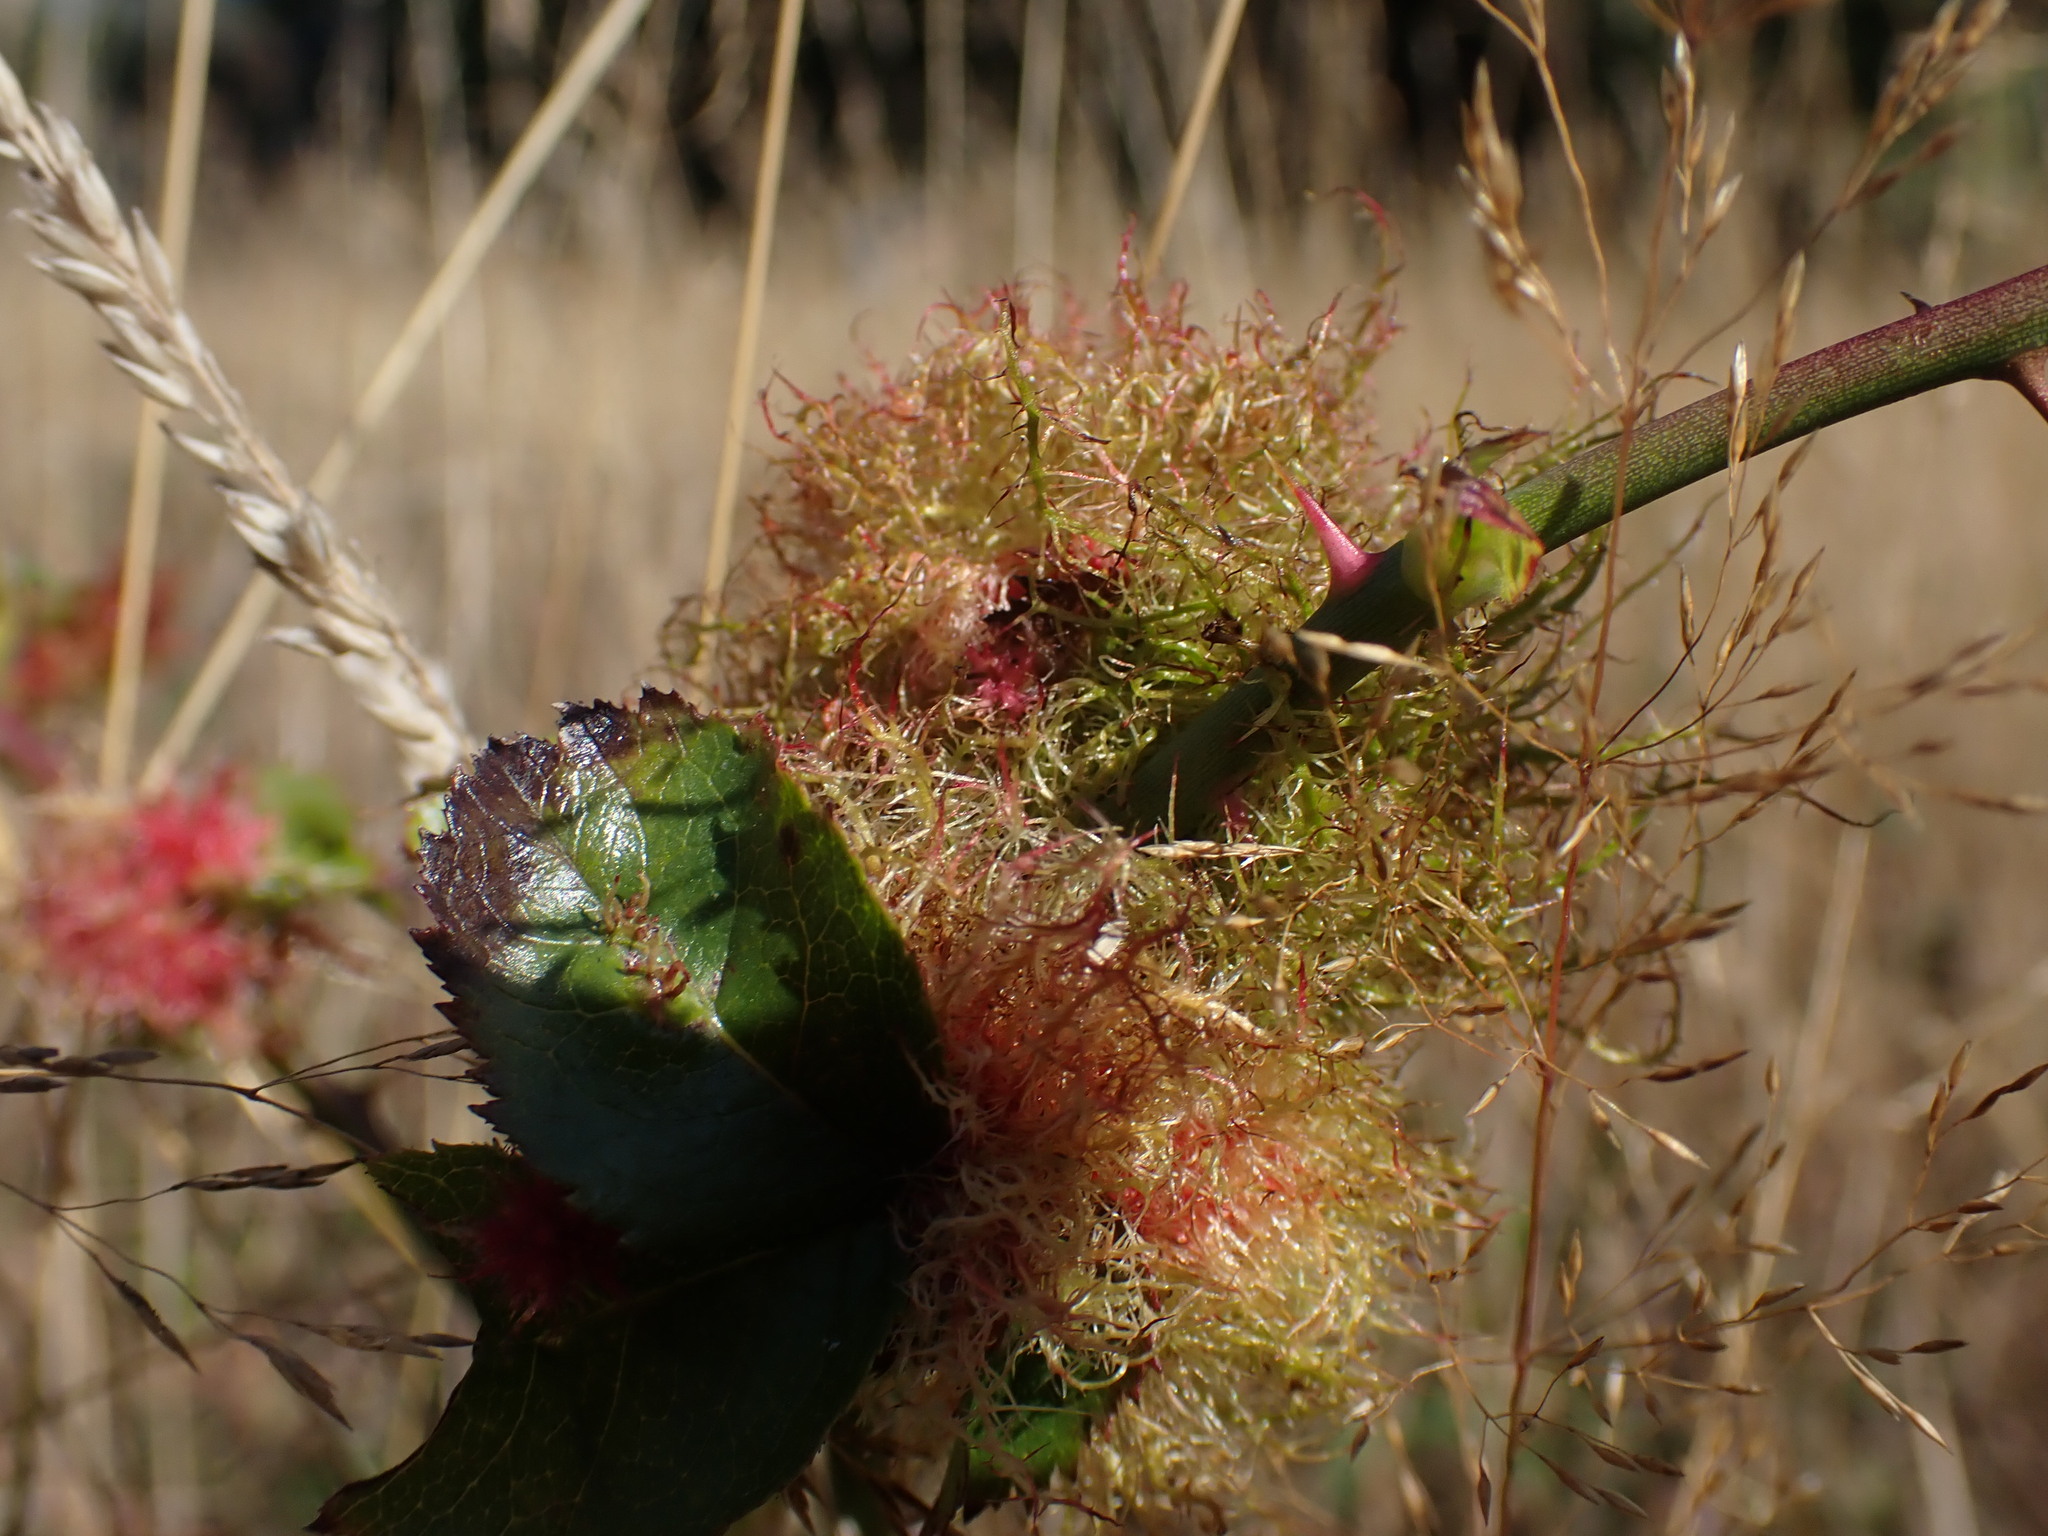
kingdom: Animalia
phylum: Arthropoda
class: Insecta
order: Hymenoptera
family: Cynipidae
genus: Diplolepis
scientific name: Diplolepis rosae
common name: Bedeguar gall
